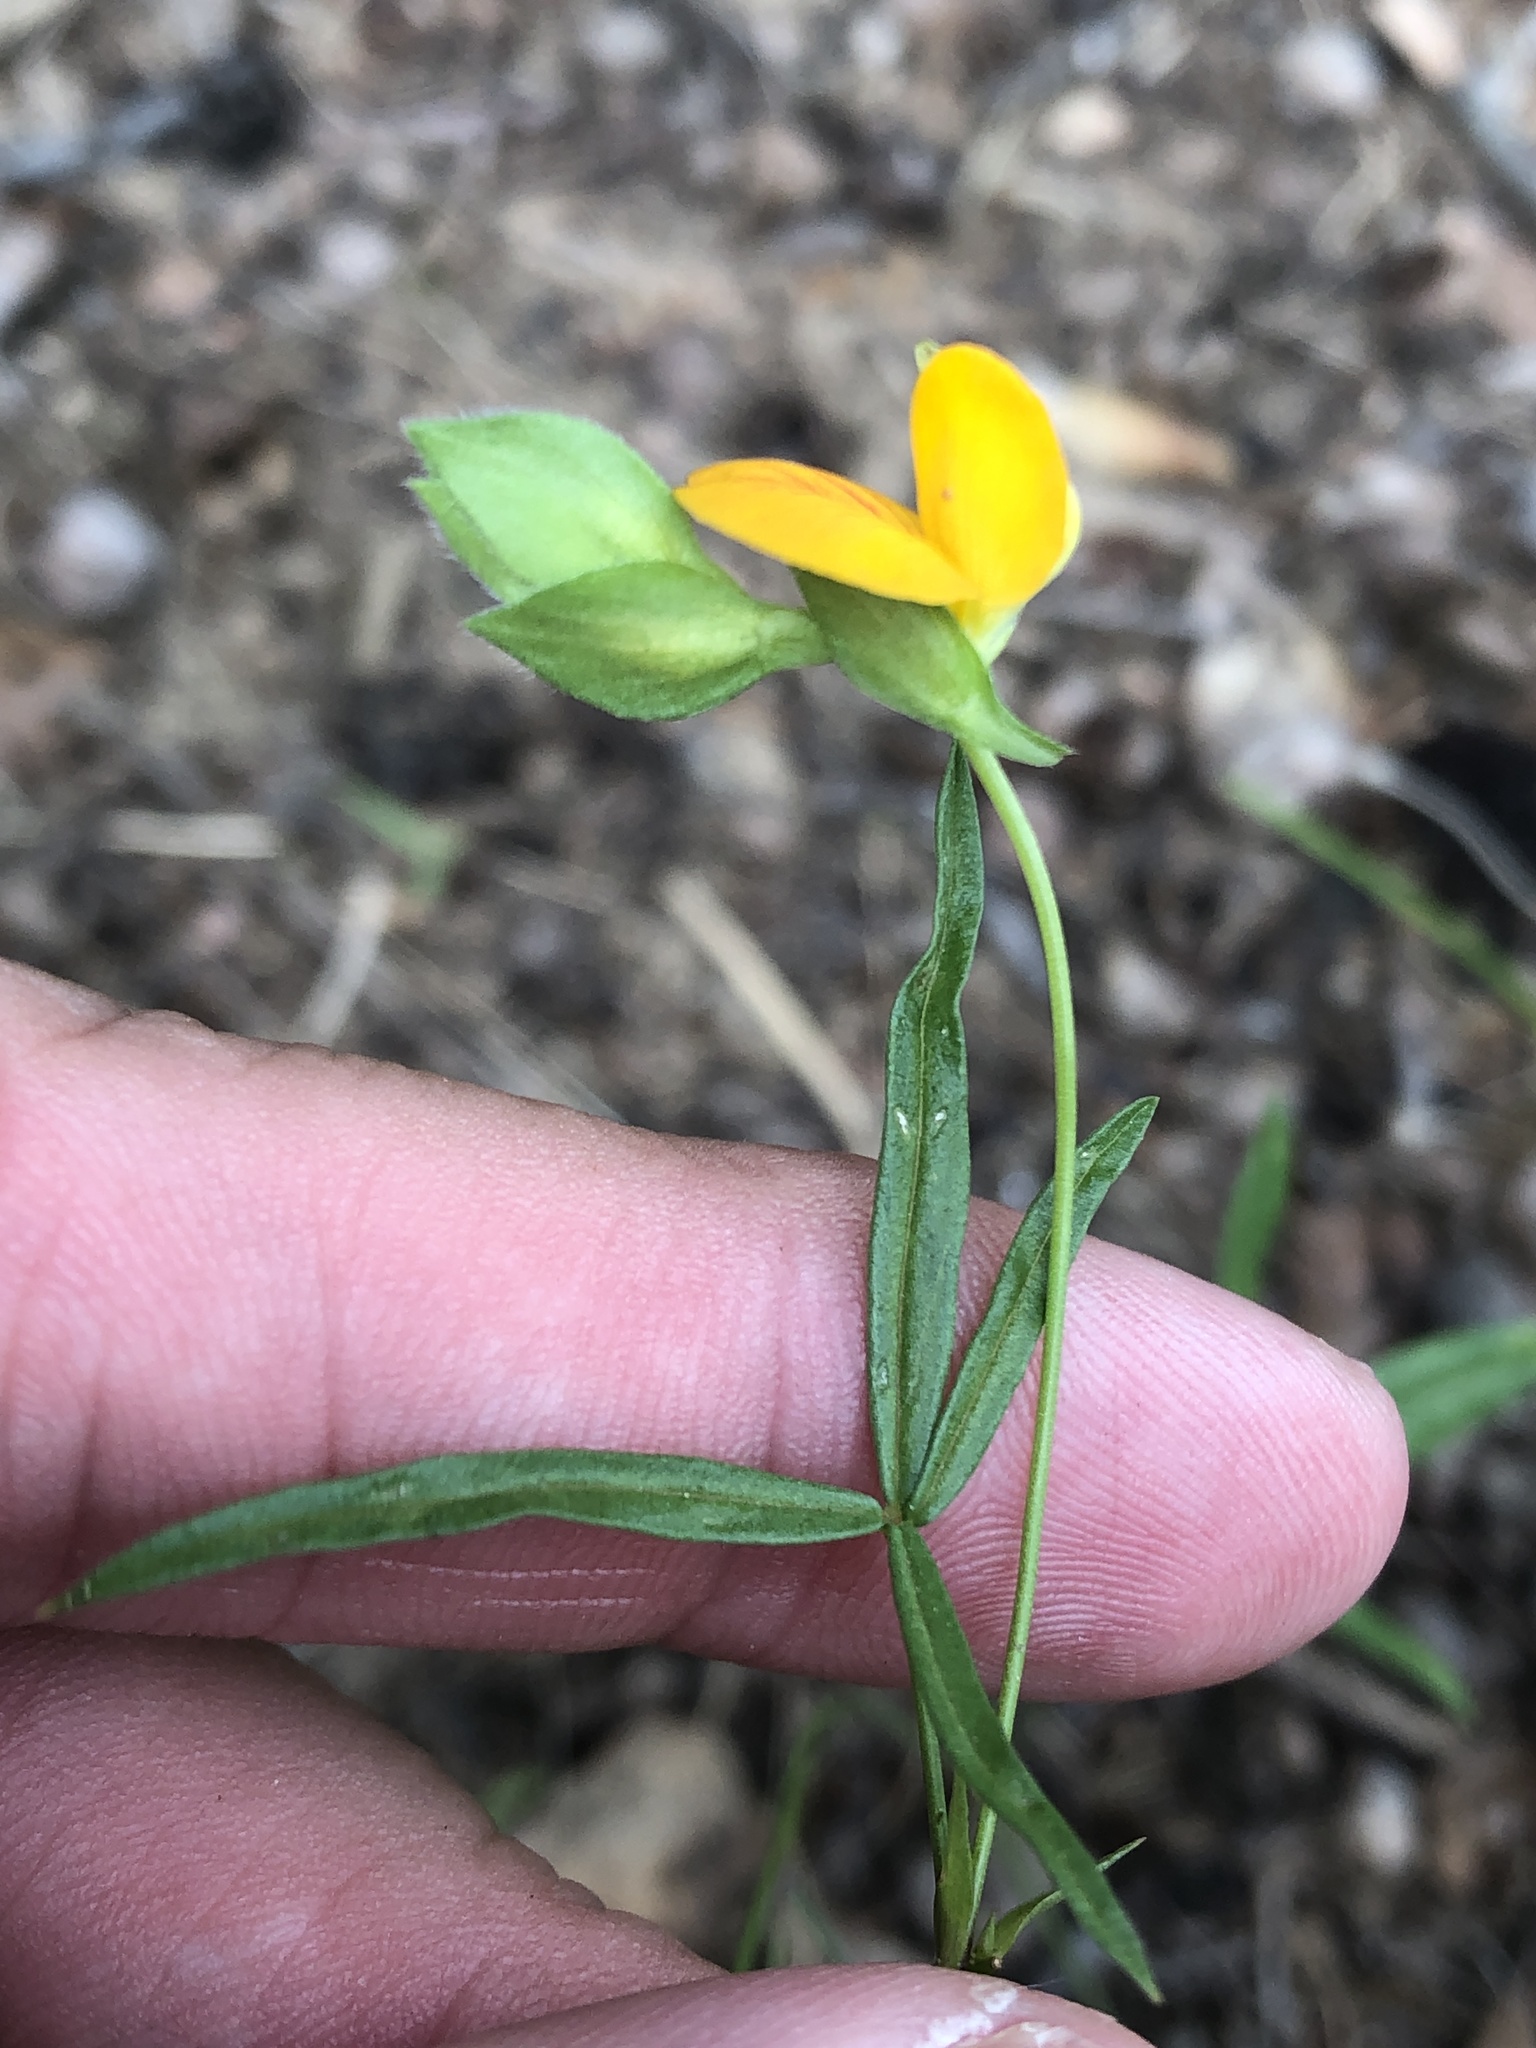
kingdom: Plantae
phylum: Tracheophyta
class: Magnoliopsida
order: Fabales
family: Fabaceae
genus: Zornia
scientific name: Zornia bracteata
